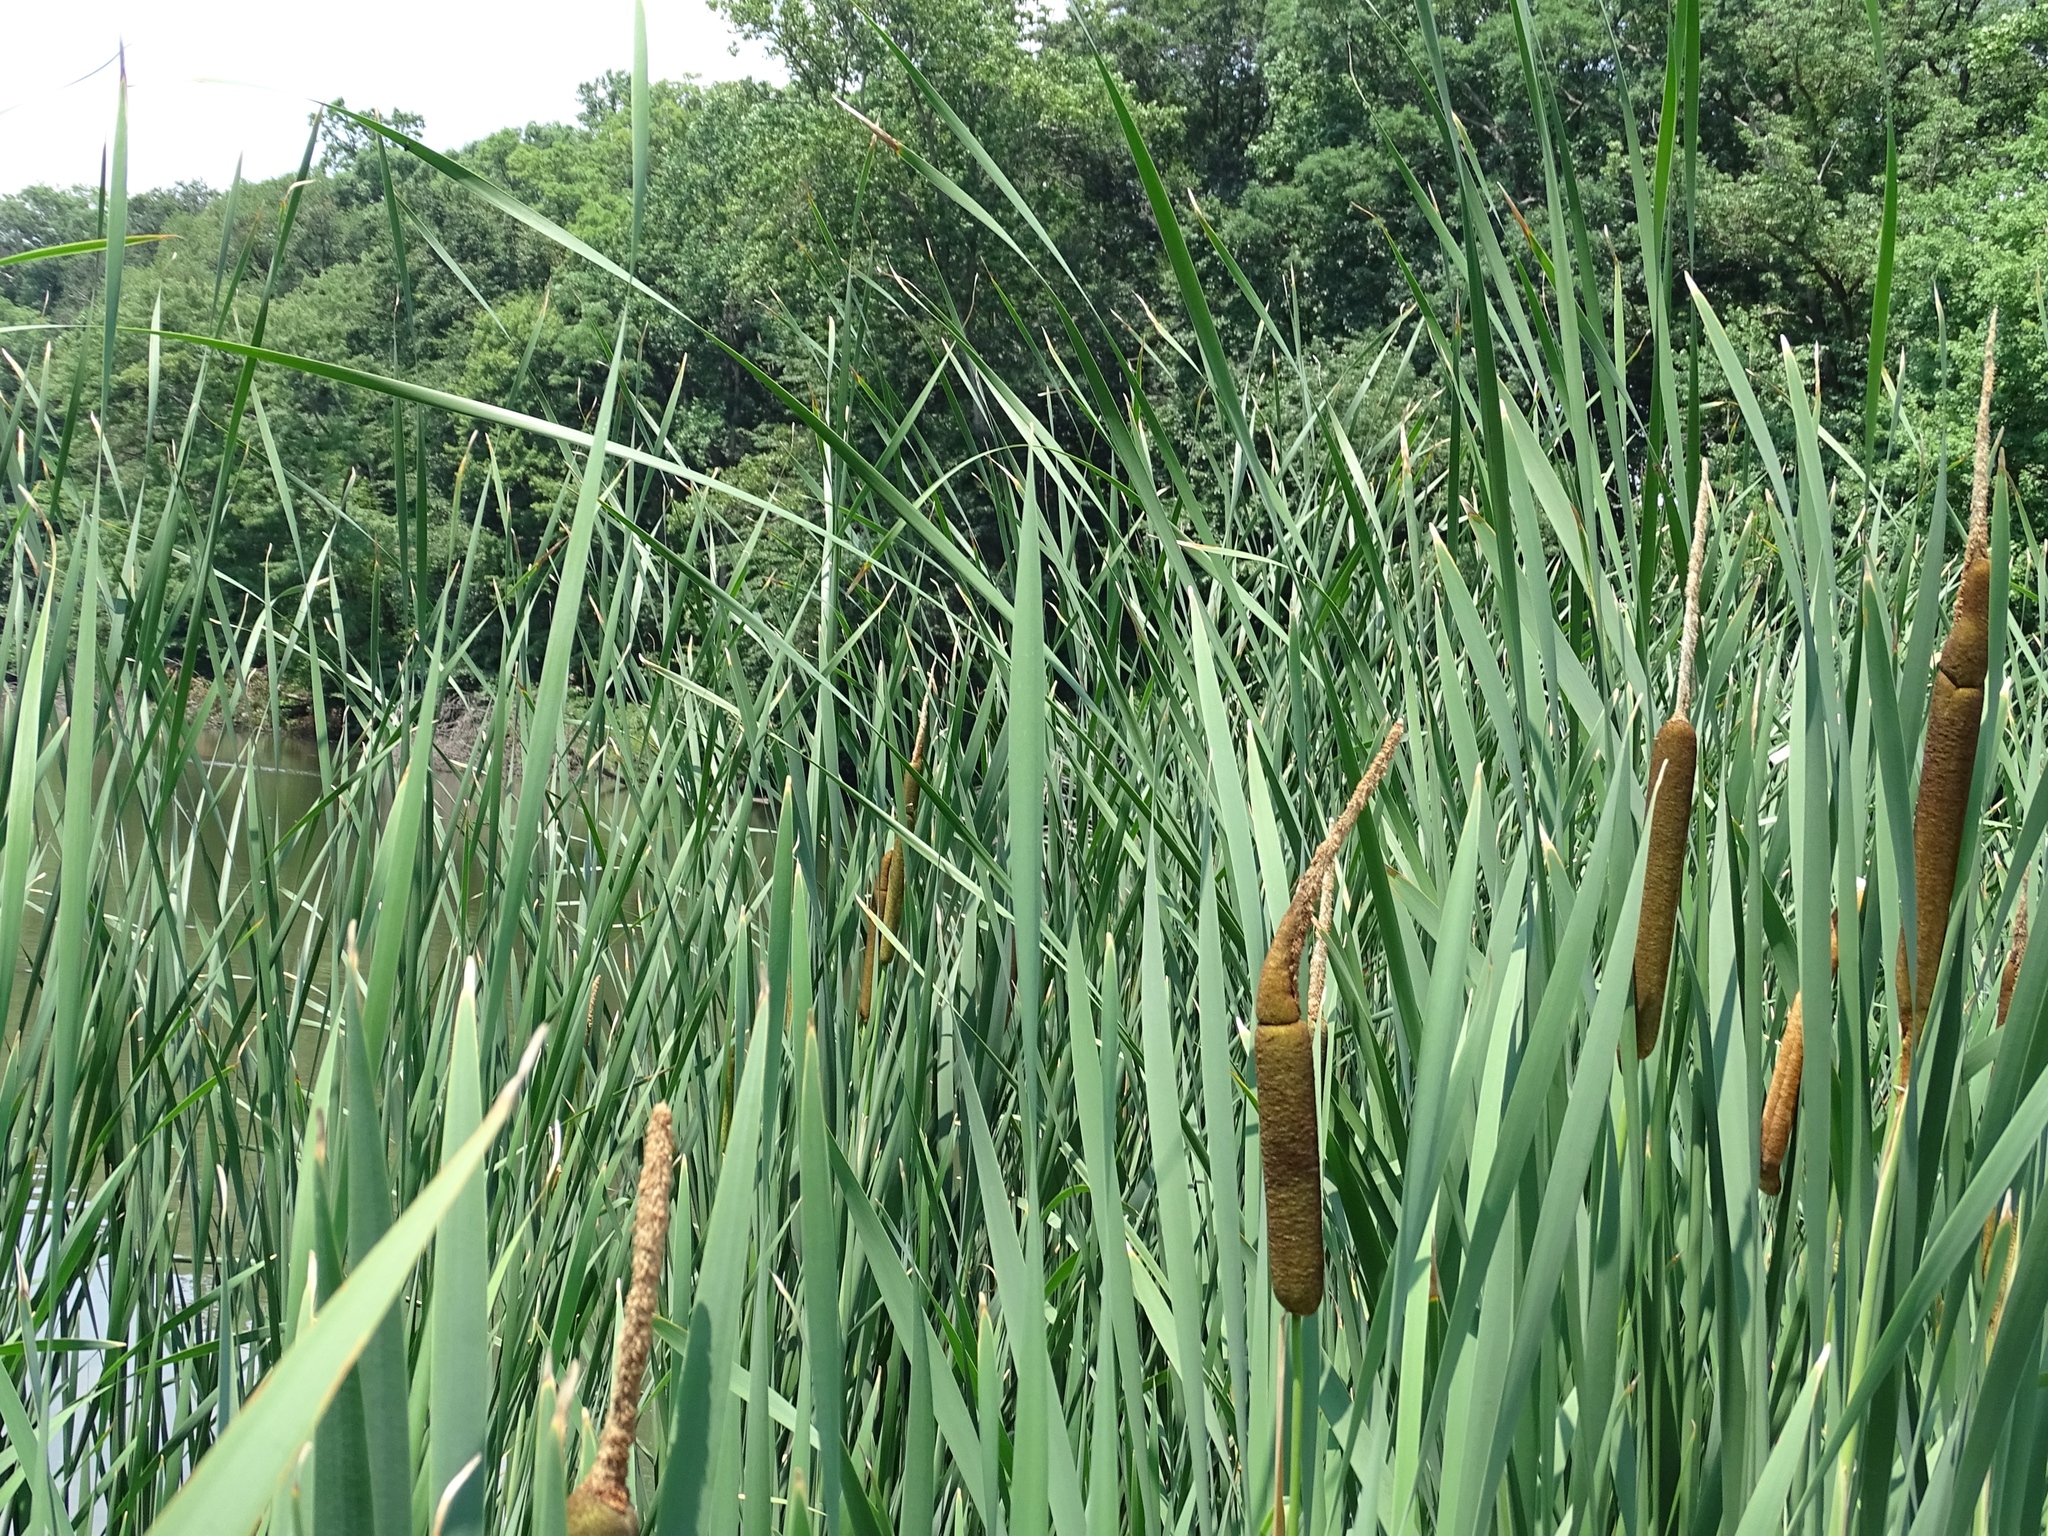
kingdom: Plantae
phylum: Tracheophyta
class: Liliopsida
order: Poales
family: Typhaceae
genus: Typha
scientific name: Typha latifolia
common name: Broadleaf cattail
